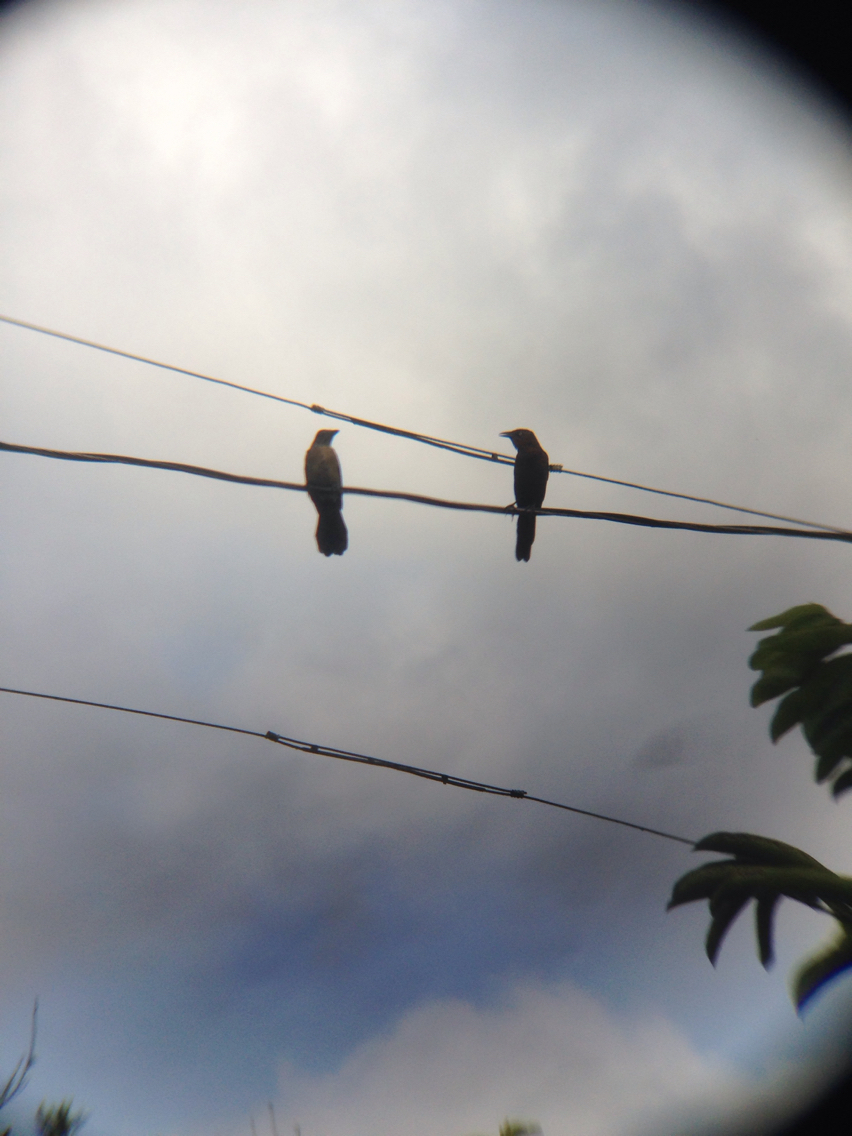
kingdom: Animalia
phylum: Chordata
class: Aves
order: Passeriformes
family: Icteridae
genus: Quiscalus
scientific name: Quiscalus mexicanus
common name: Great-tailed grackle
